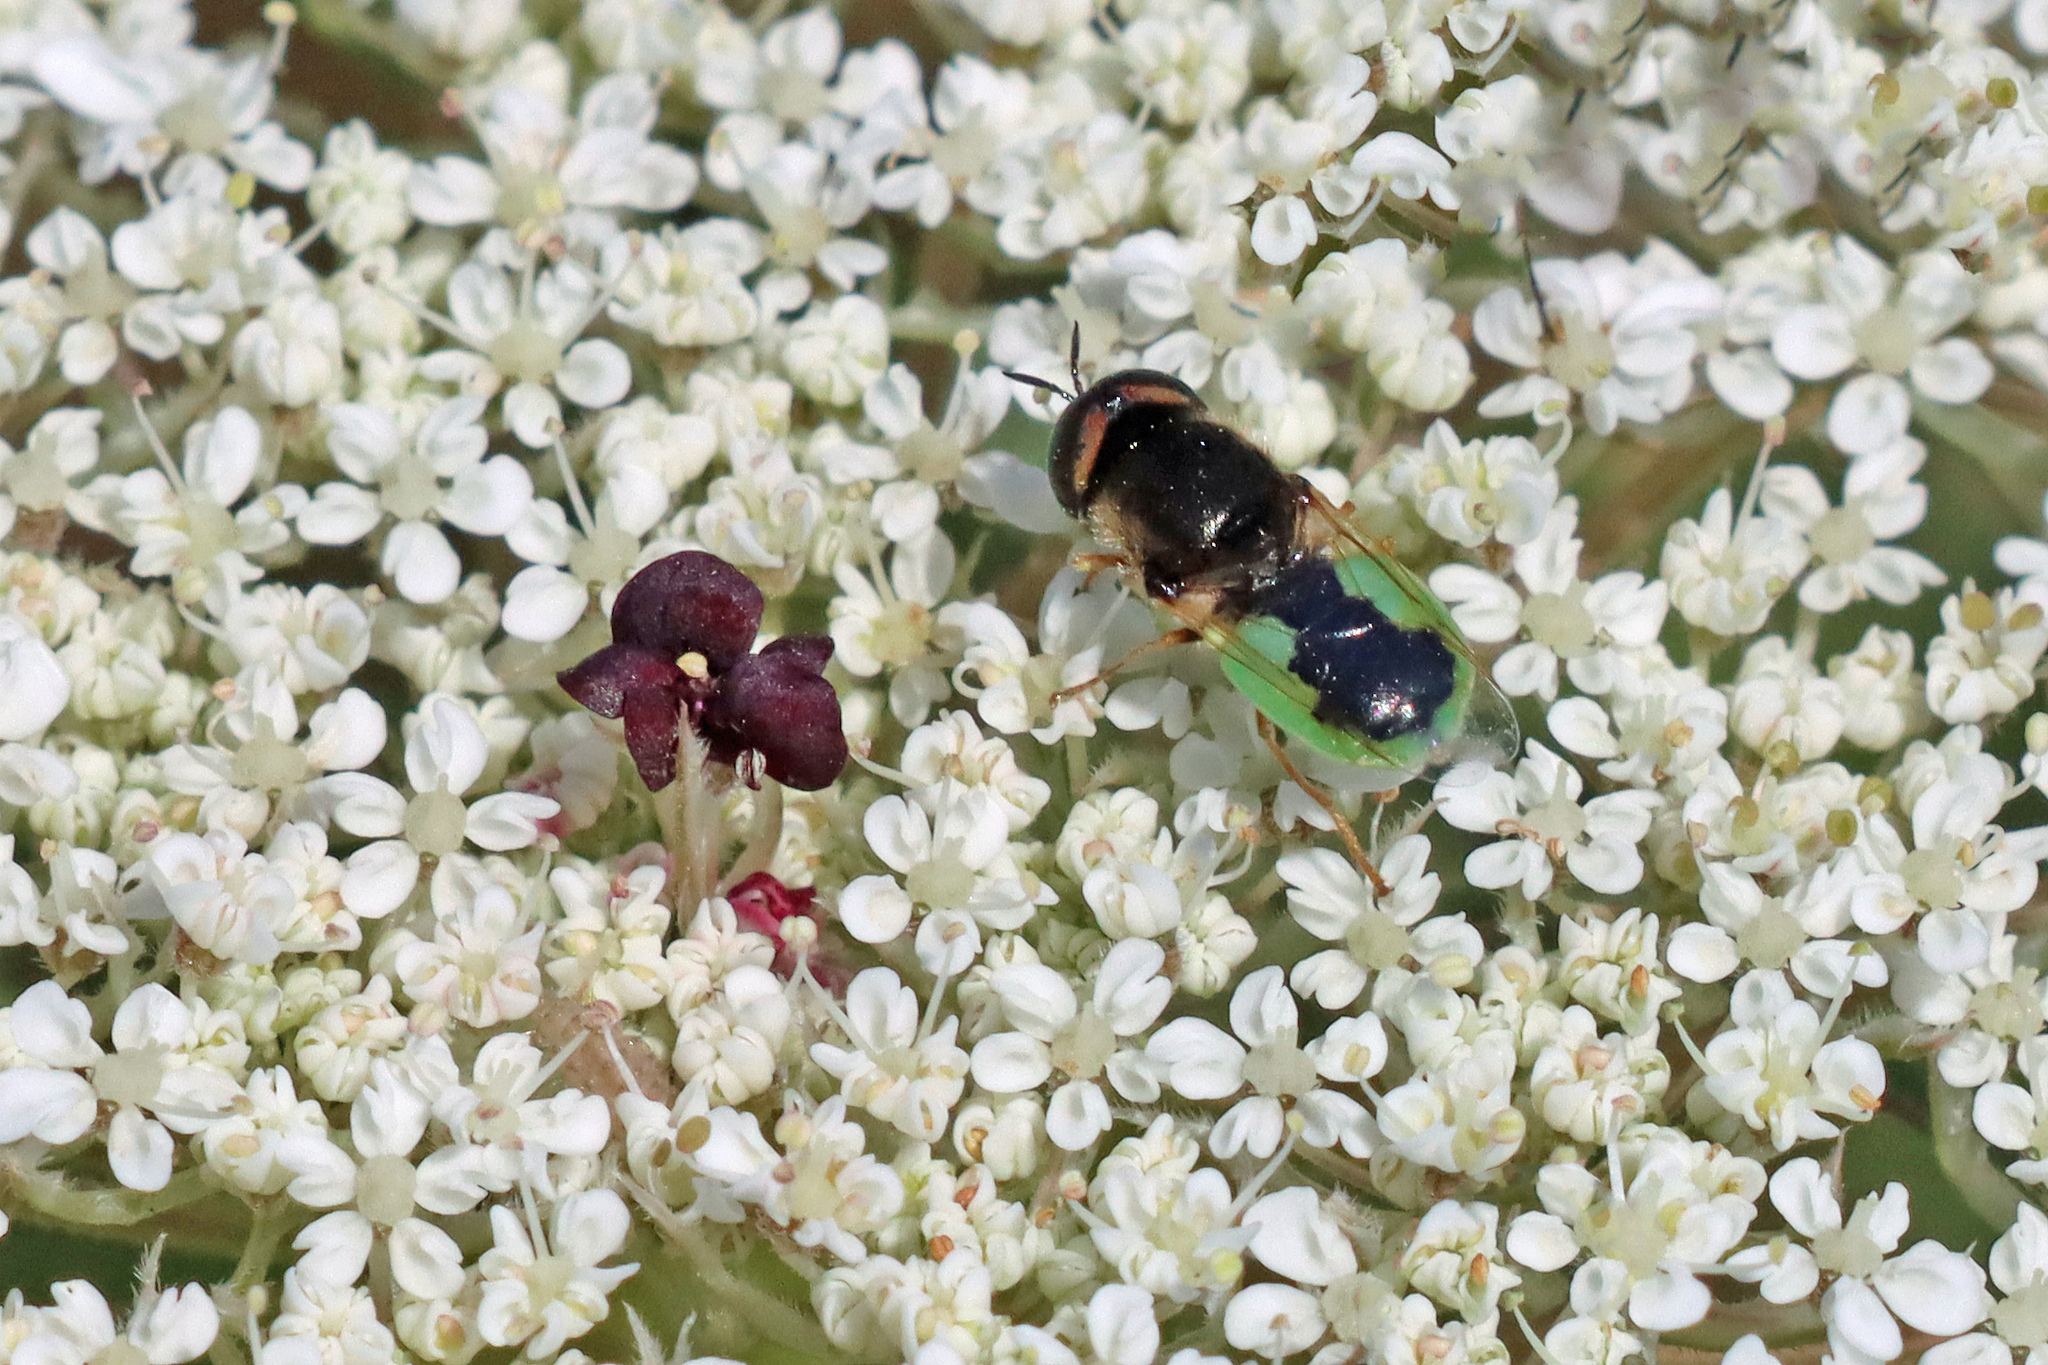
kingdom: Animalia
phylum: Arthropoda
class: Insecta
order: Diptera
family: Stratiomyidae
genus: Oplodontha
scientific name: Oplodontha viridula
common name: Common green colonel
